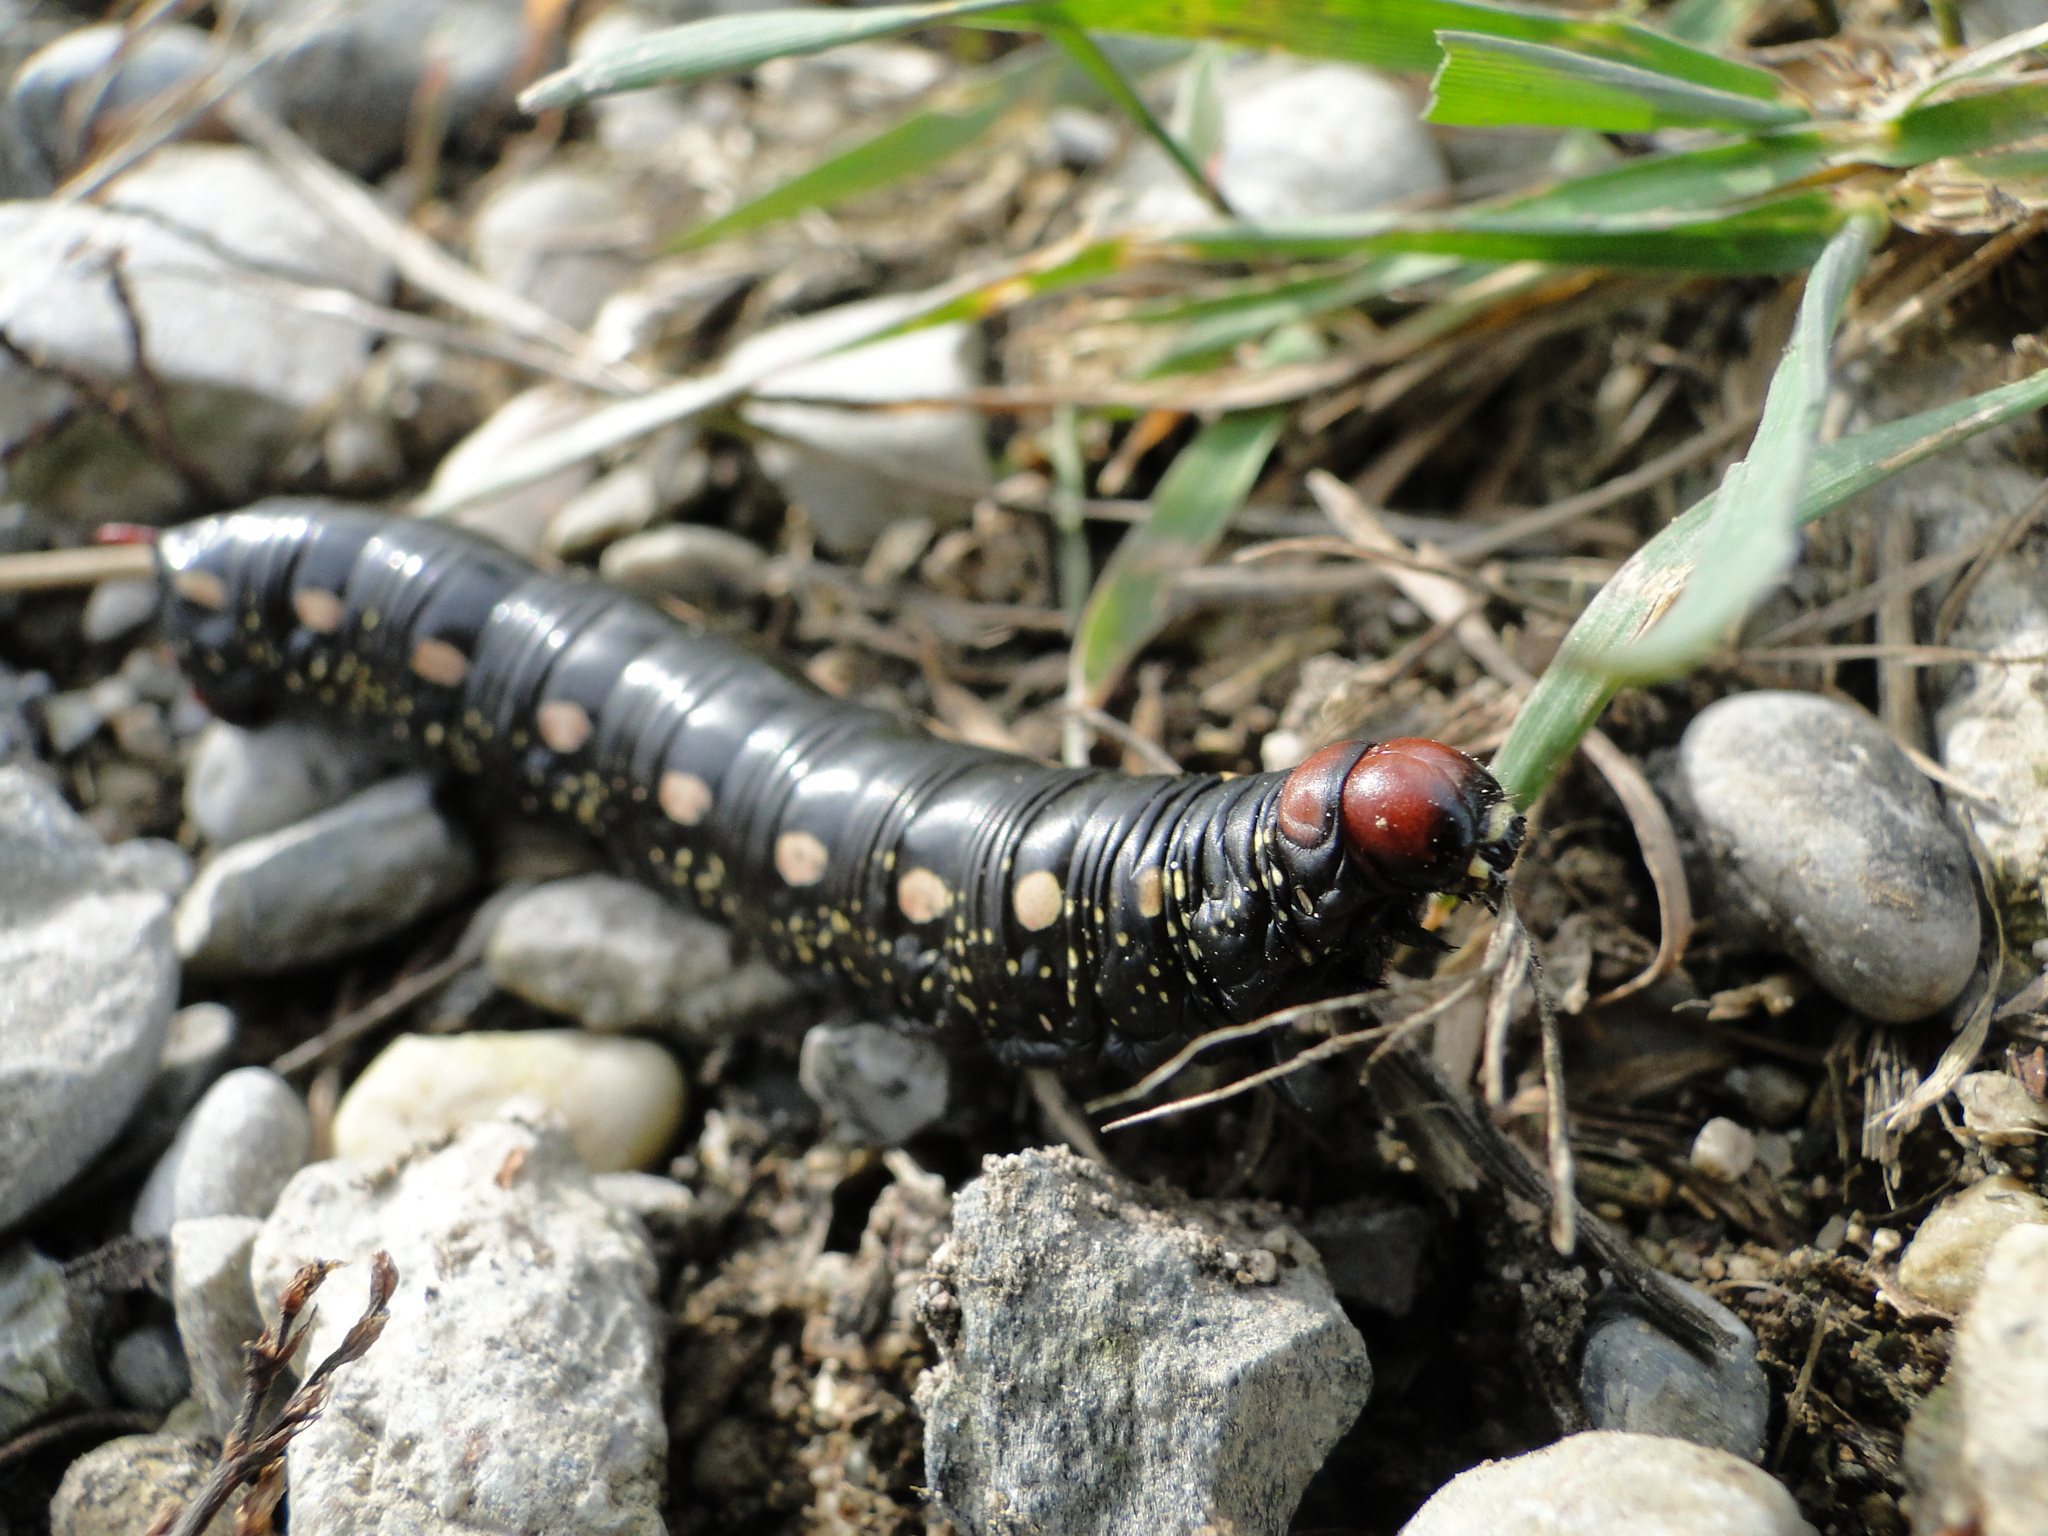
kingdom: Animalia
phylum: Arthropoda
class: Insecta
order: Lepidoptera
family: Sphingidae
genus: Hyles
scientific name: Hyles gallii
